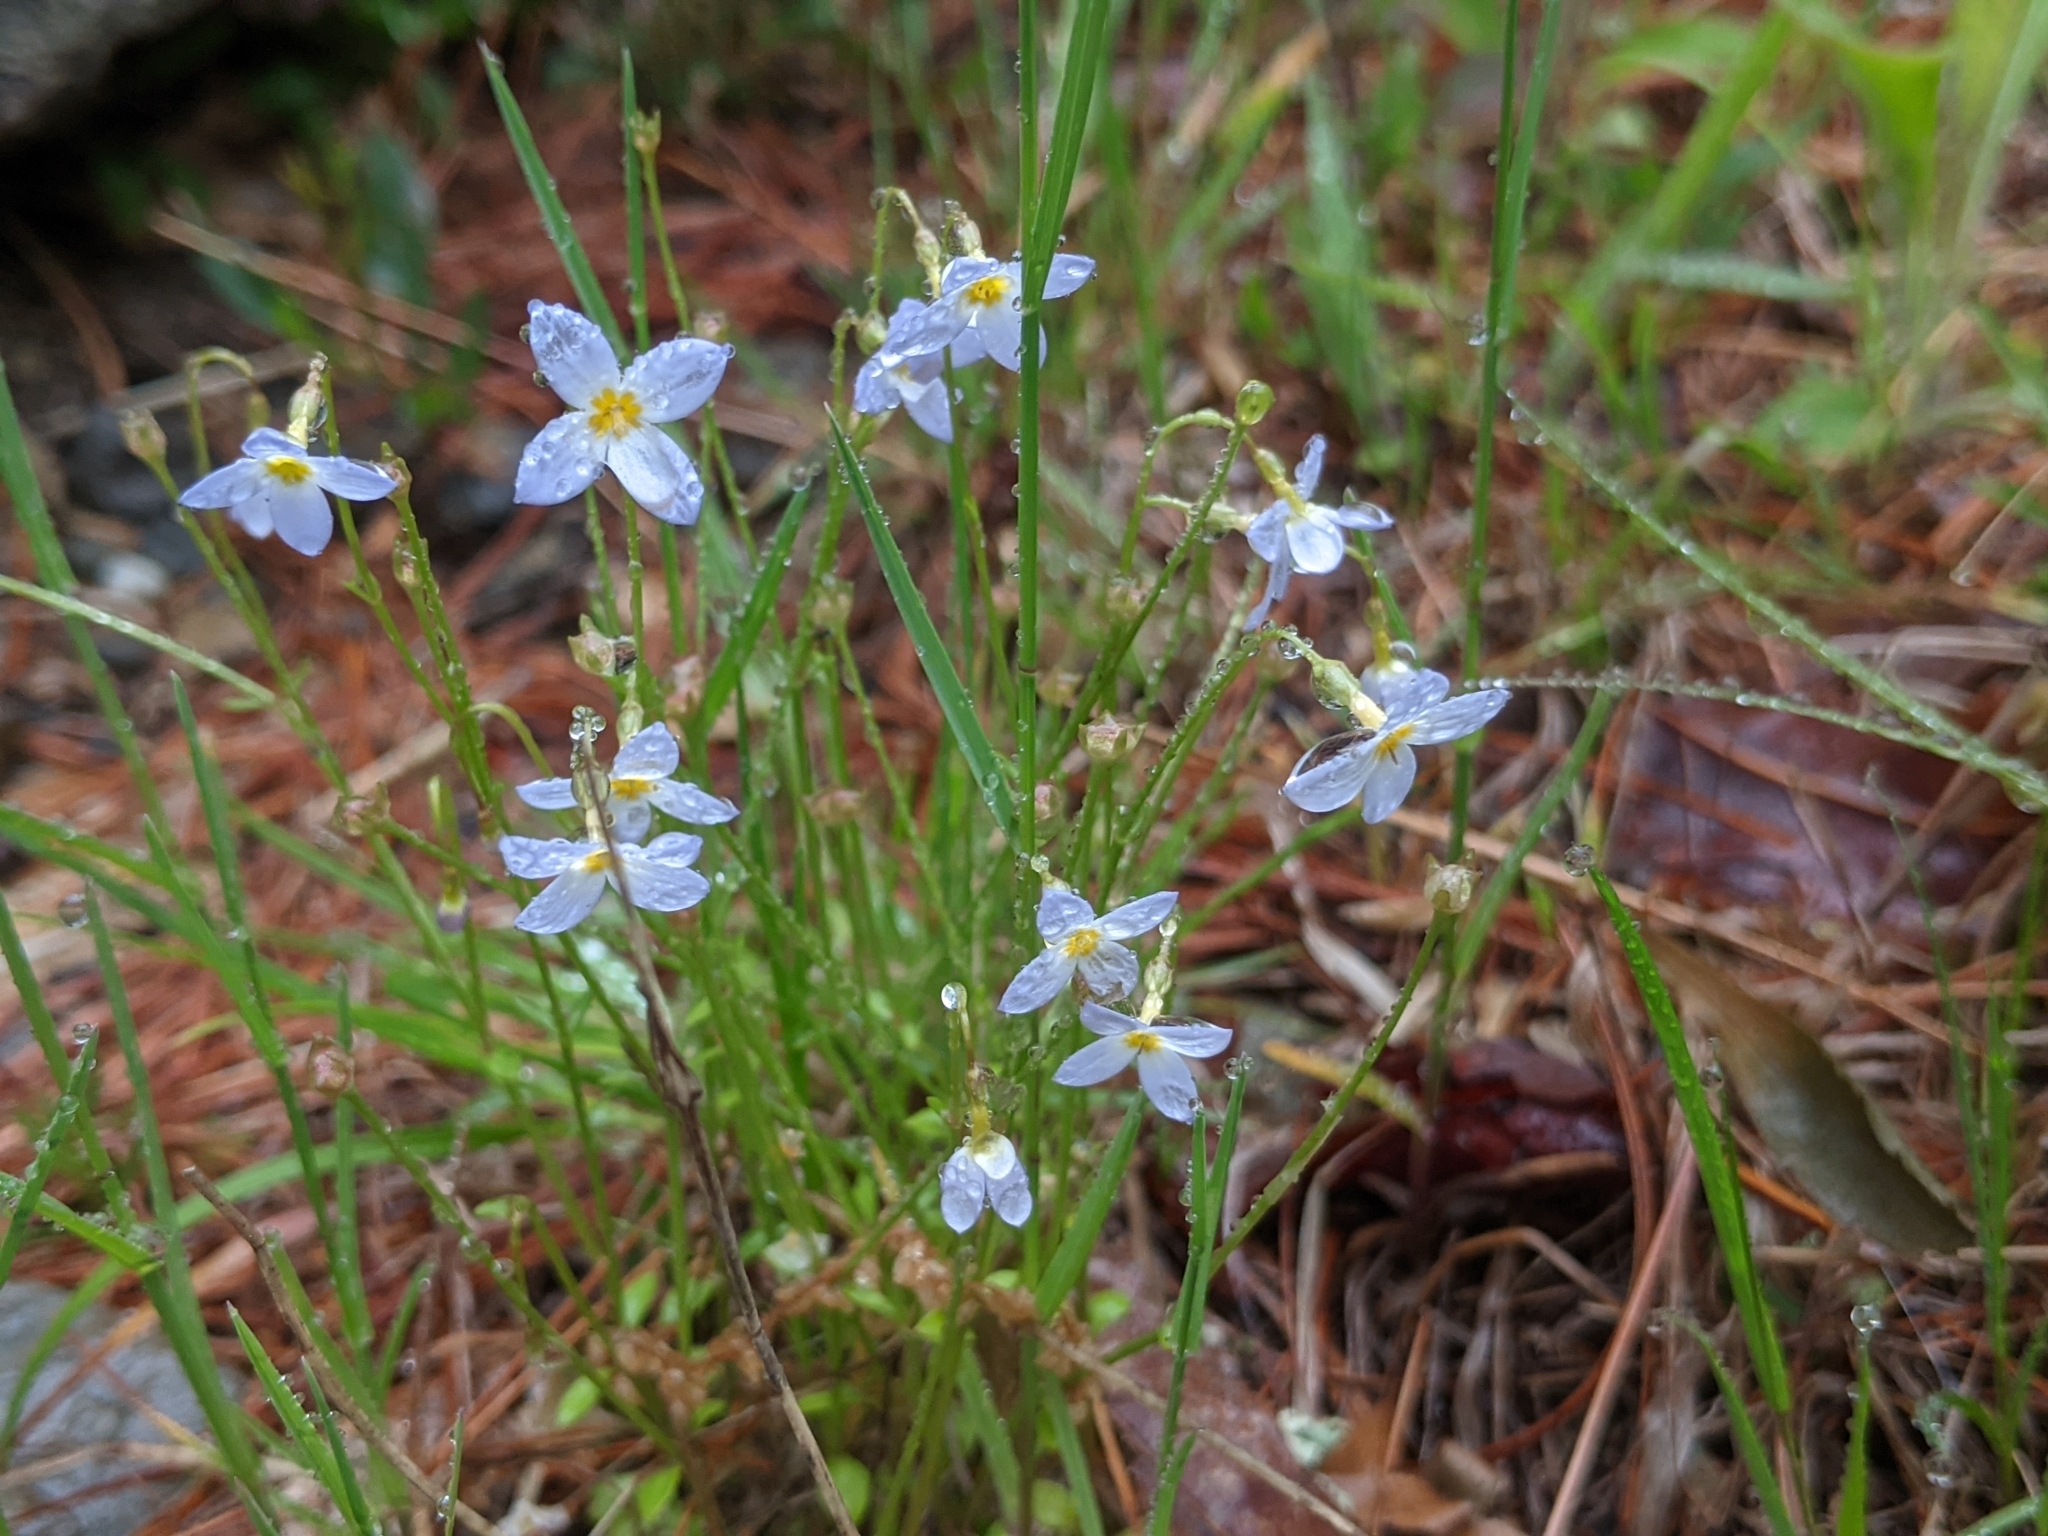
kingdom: Plantae
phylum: Tracheophyta
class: Magnoliopsida
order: Gentianales
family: Rubiaceae
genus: Houstonia
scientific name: Houstonia caerulea
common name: Bluets
